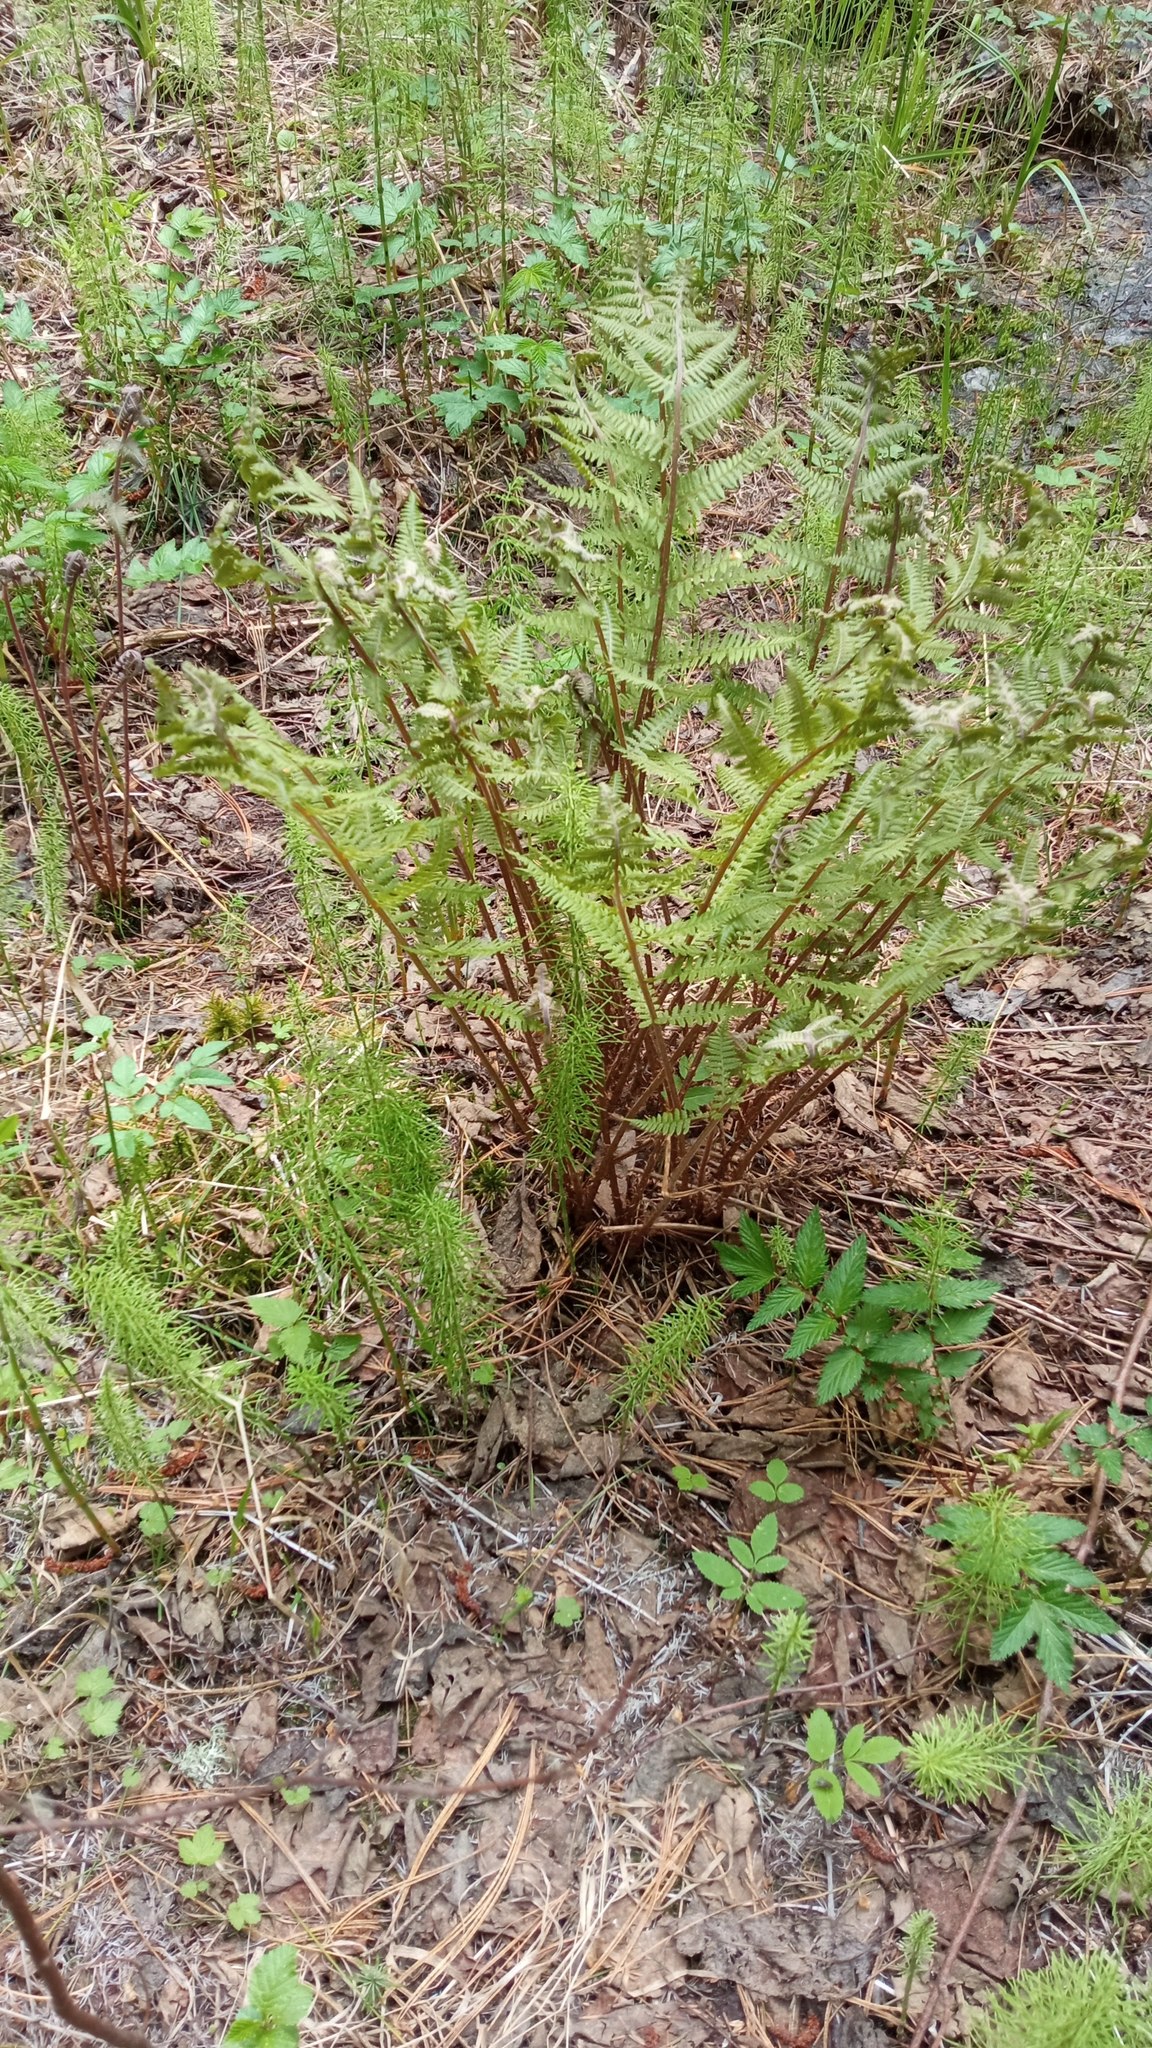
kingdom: Plantae
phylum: Tracheophyta
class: Polypodiopsida
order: Polypodiales
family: Athyriaceae
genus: Athyrium
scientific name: Athyrium filix-femina
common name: Lady fern
